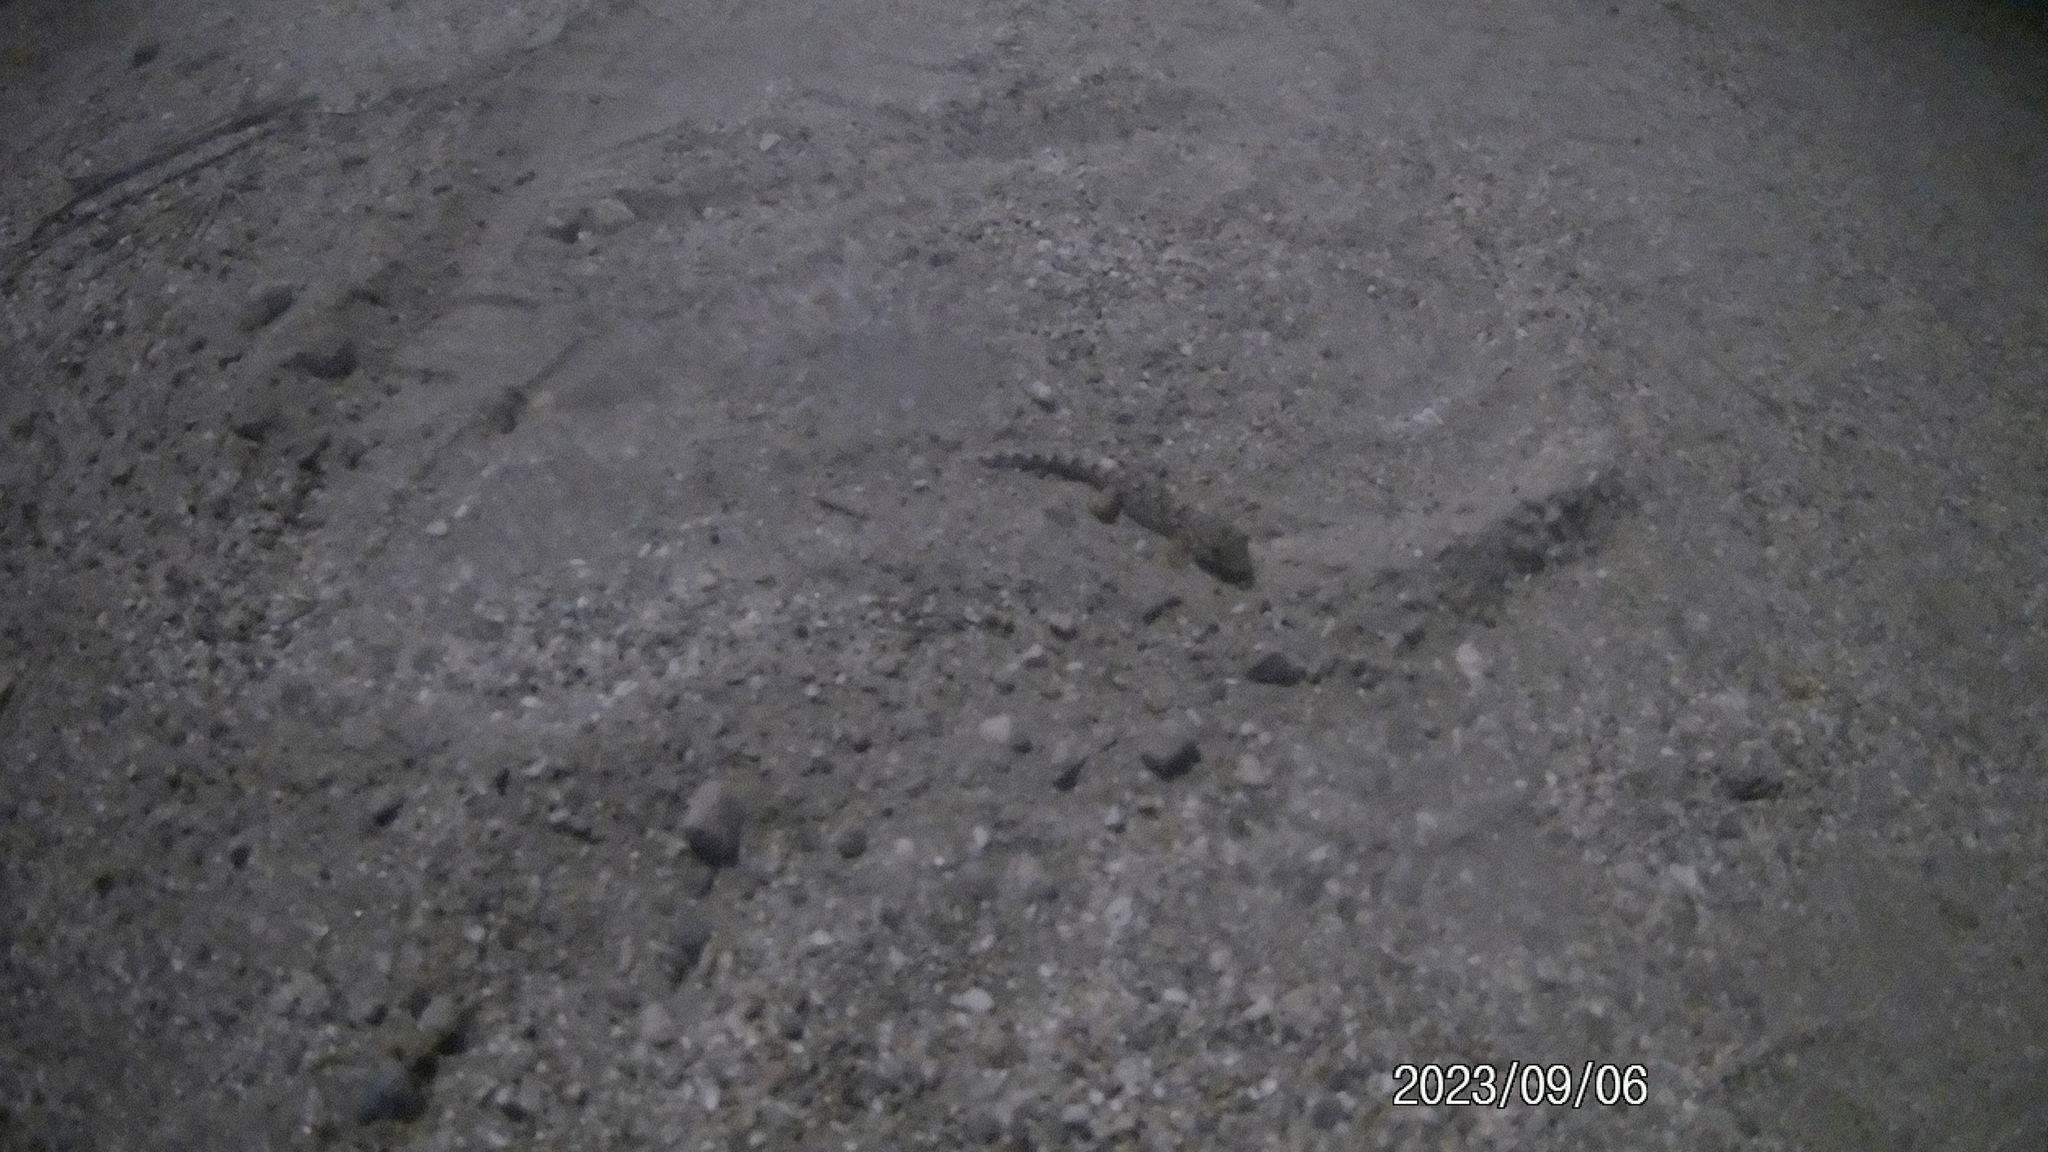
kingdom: Animalia
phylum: Chordata
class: Squamata
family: Phyllodactylidae
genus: Tarentola
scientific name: Tarentola mauritanica
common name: Moorish gecko
